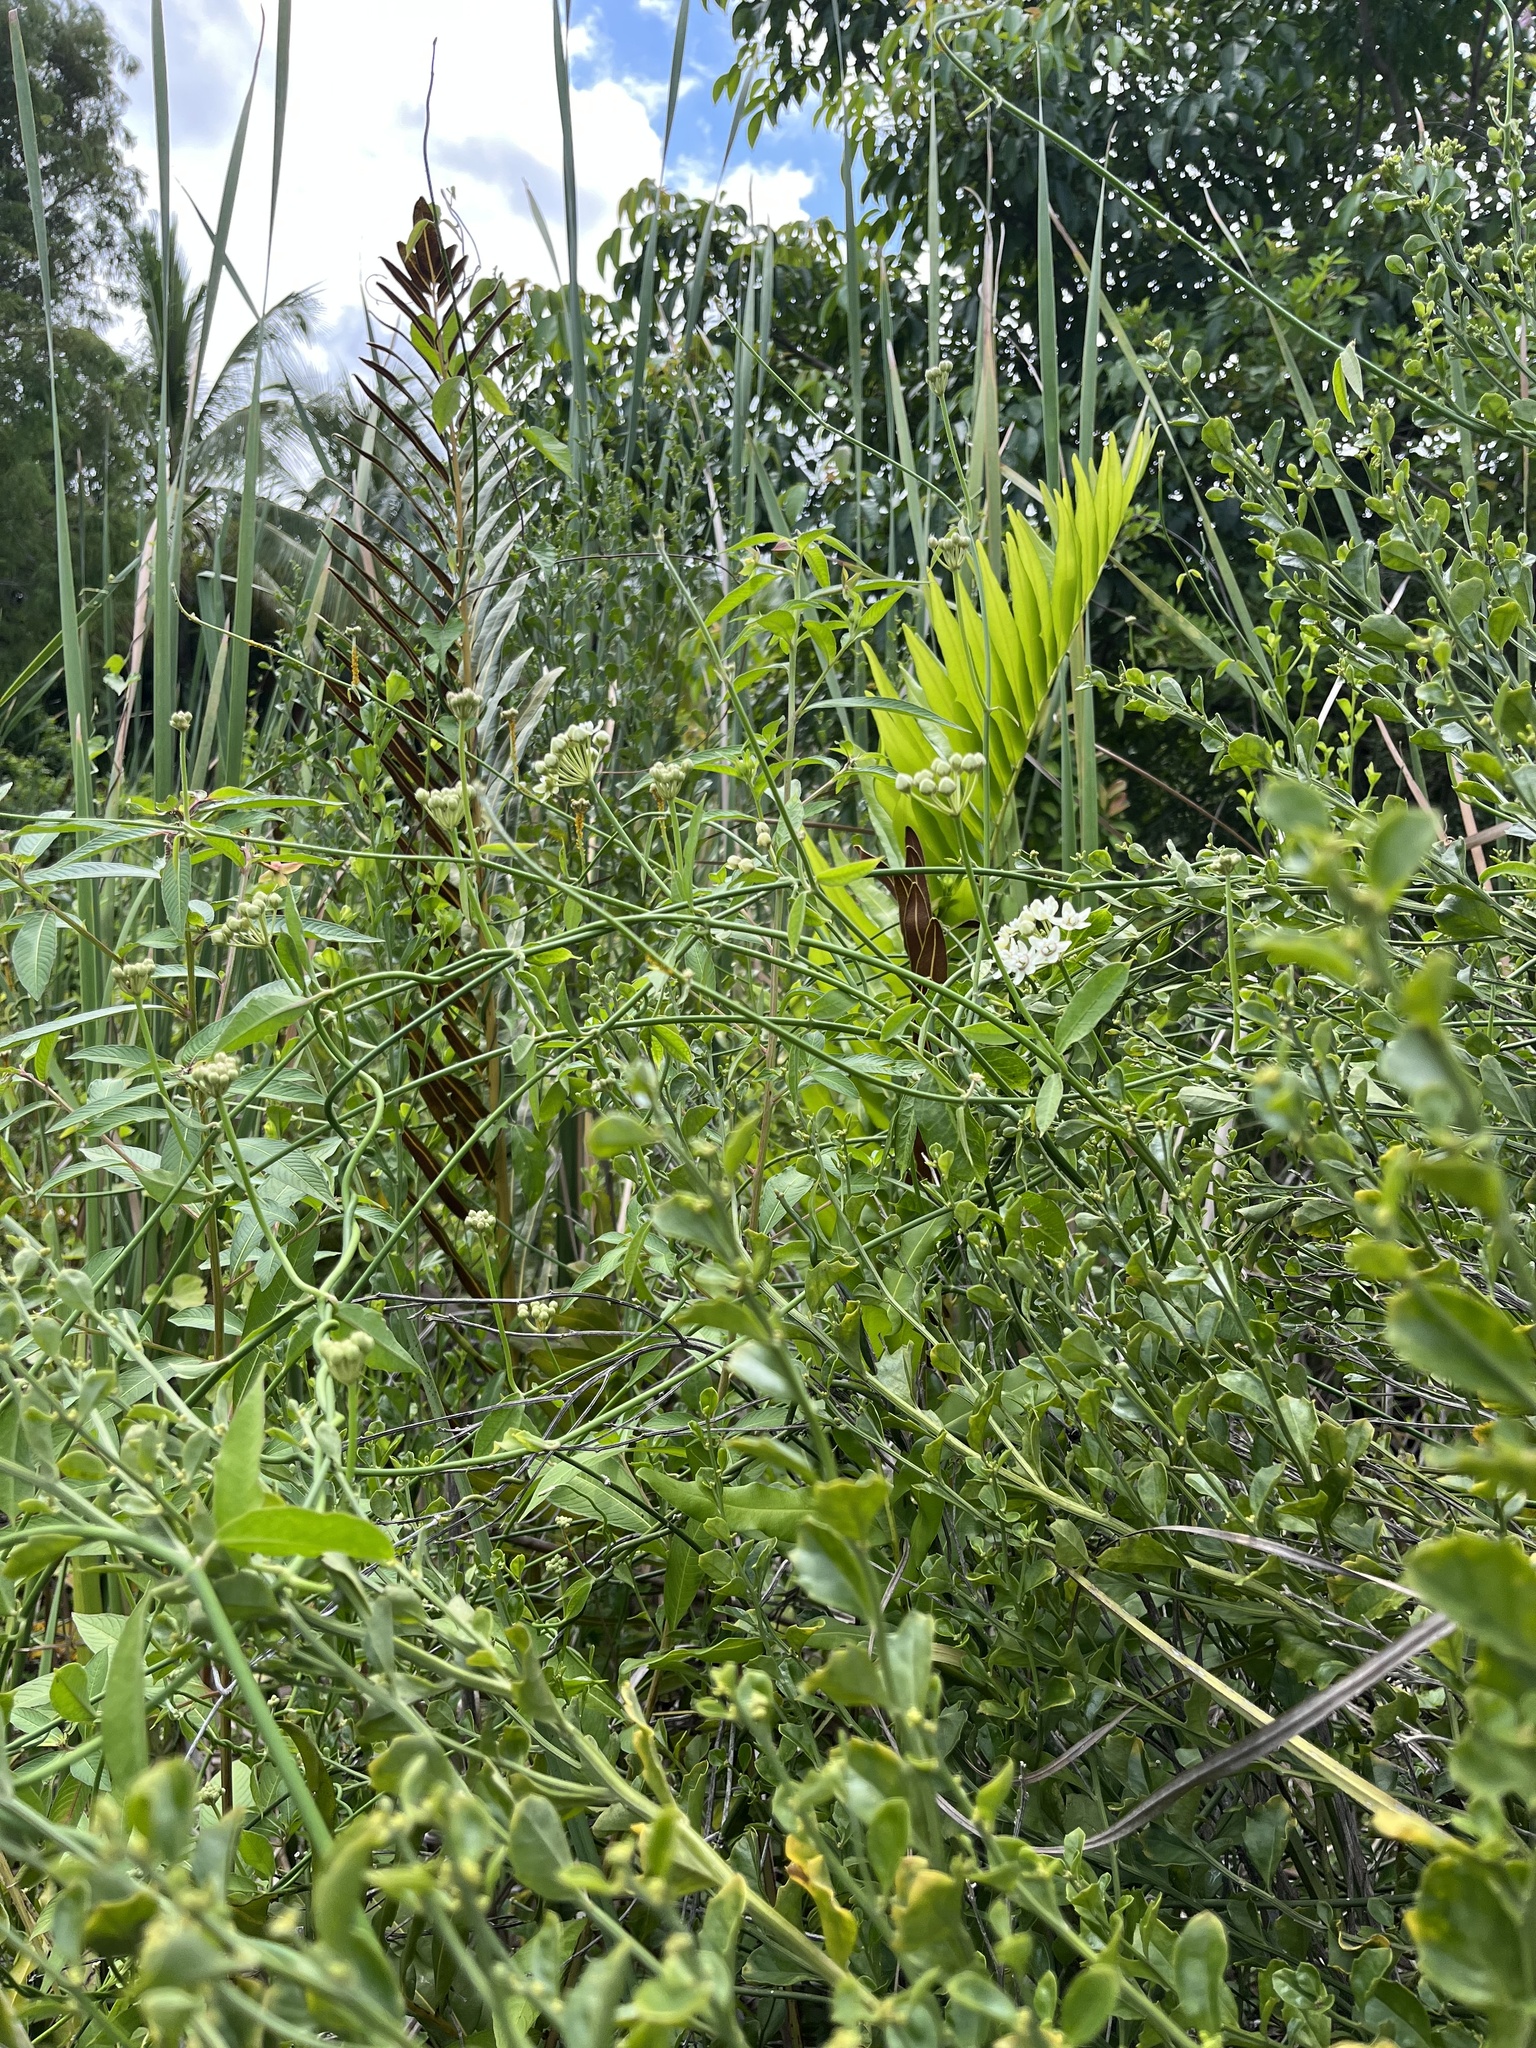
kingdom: Plantae
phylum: Tracheophyta
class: Magnoliopsida
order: Gentianales
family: Apocynaceae
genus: Funastrum
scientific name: Funastrum clausum
